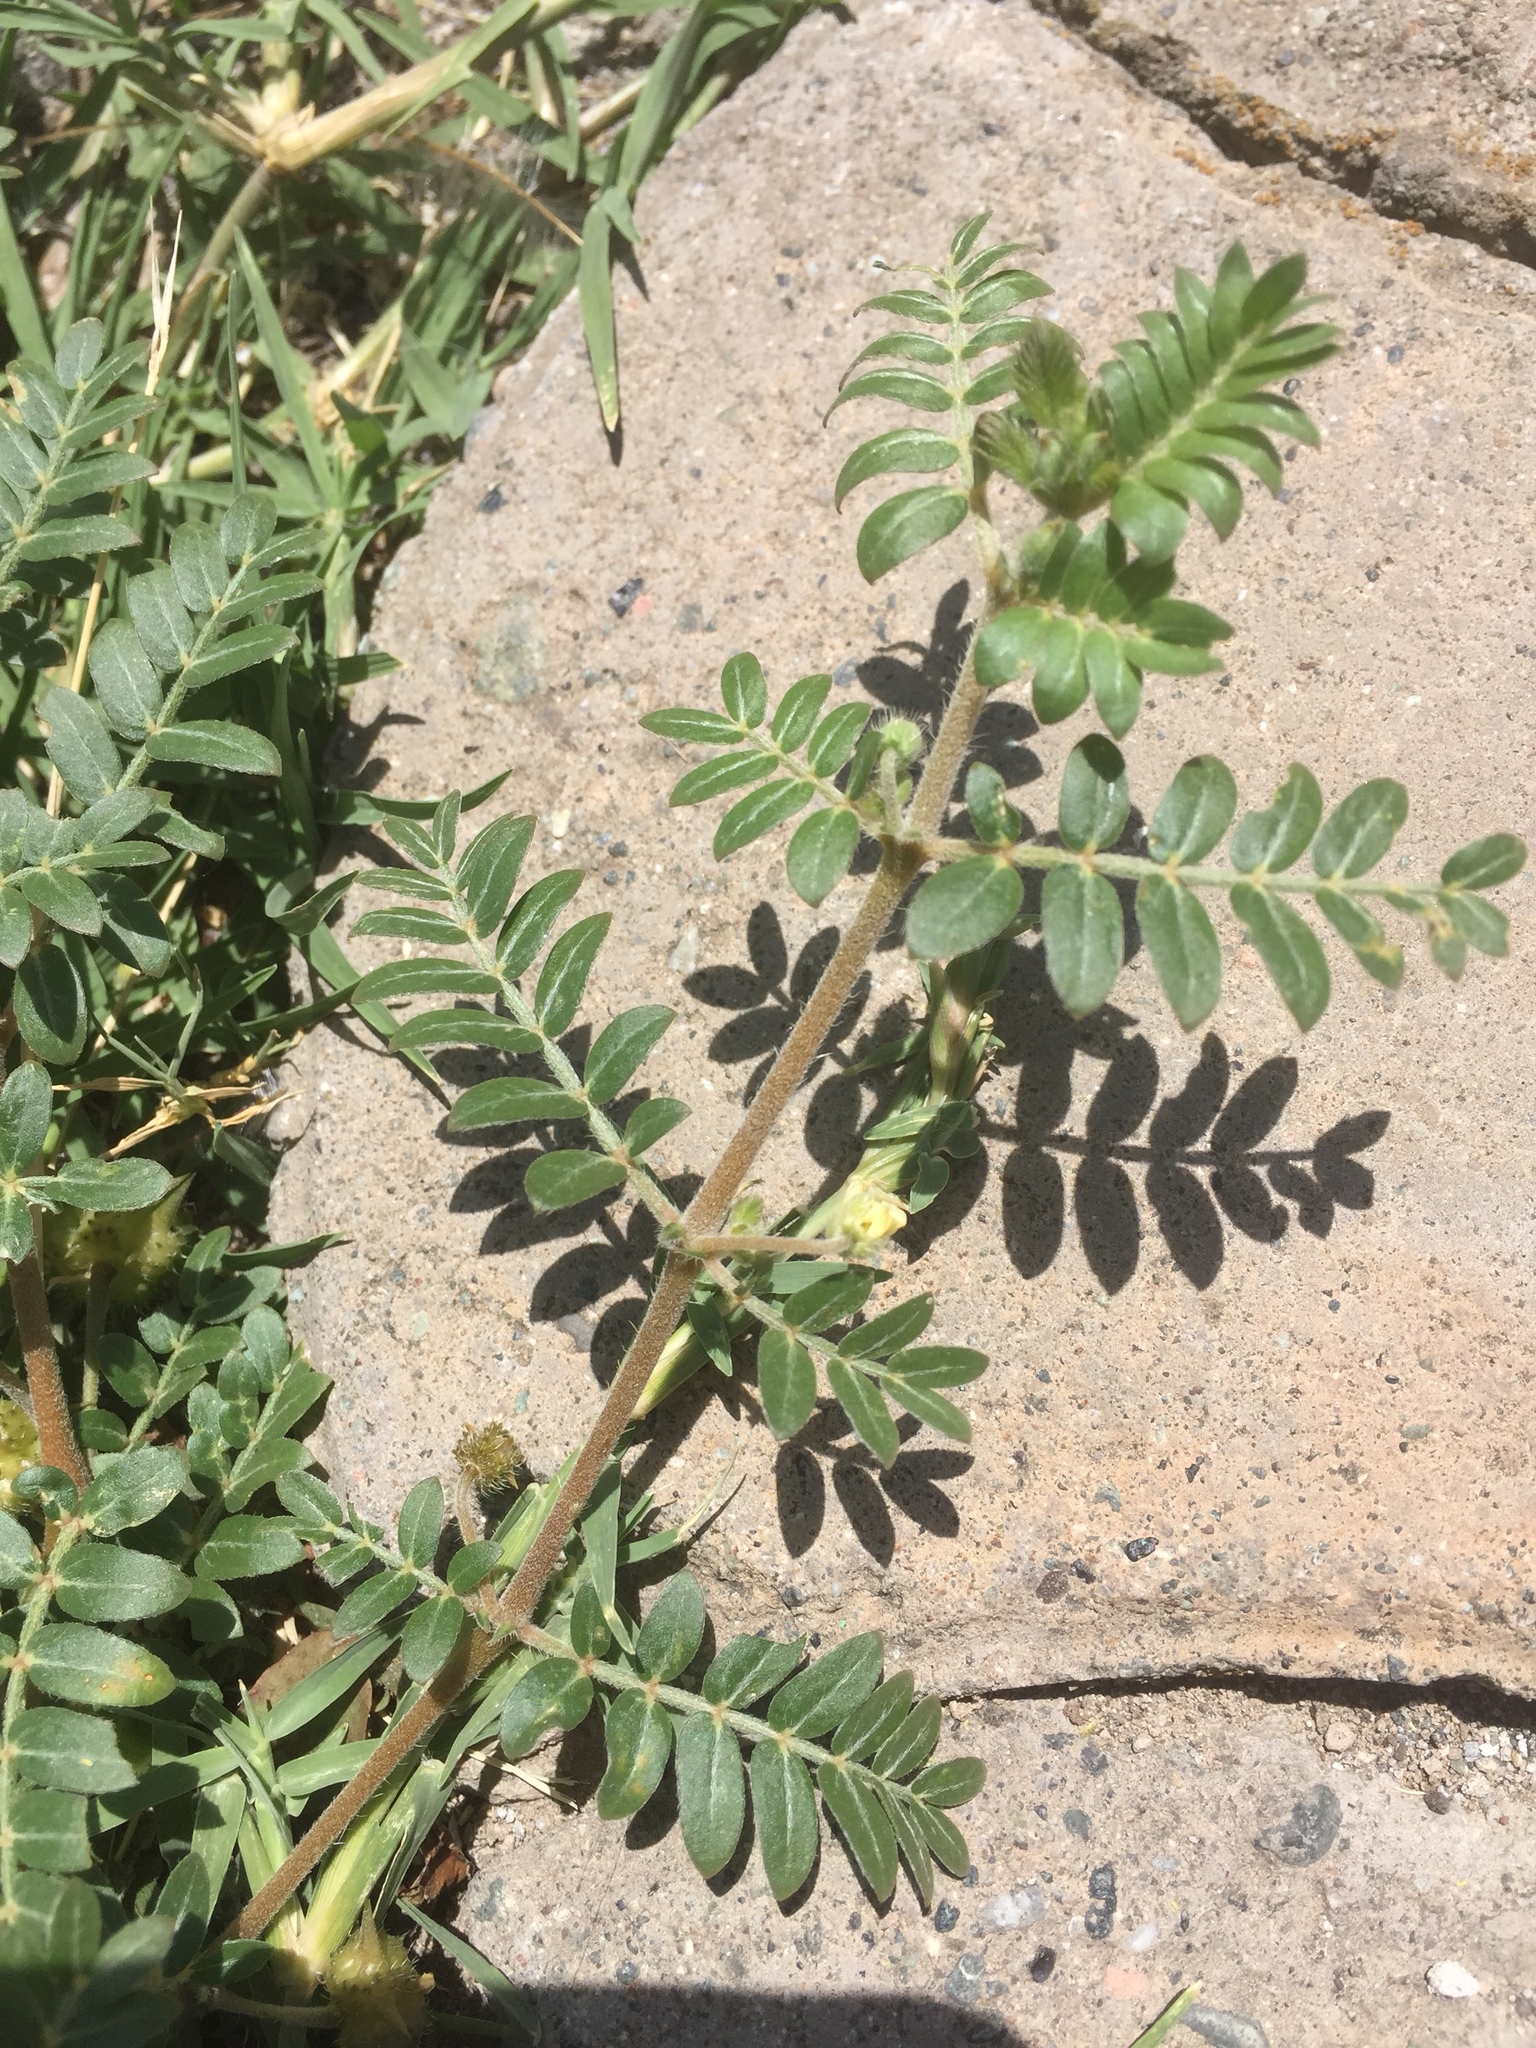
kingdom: Plantae
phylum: Tracheophyta
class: Magnoliopsida
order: Zygophyllales
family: Zygophyllaceae
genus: Tribulus
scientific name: Tribulus terrestris
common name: Puncturevine
